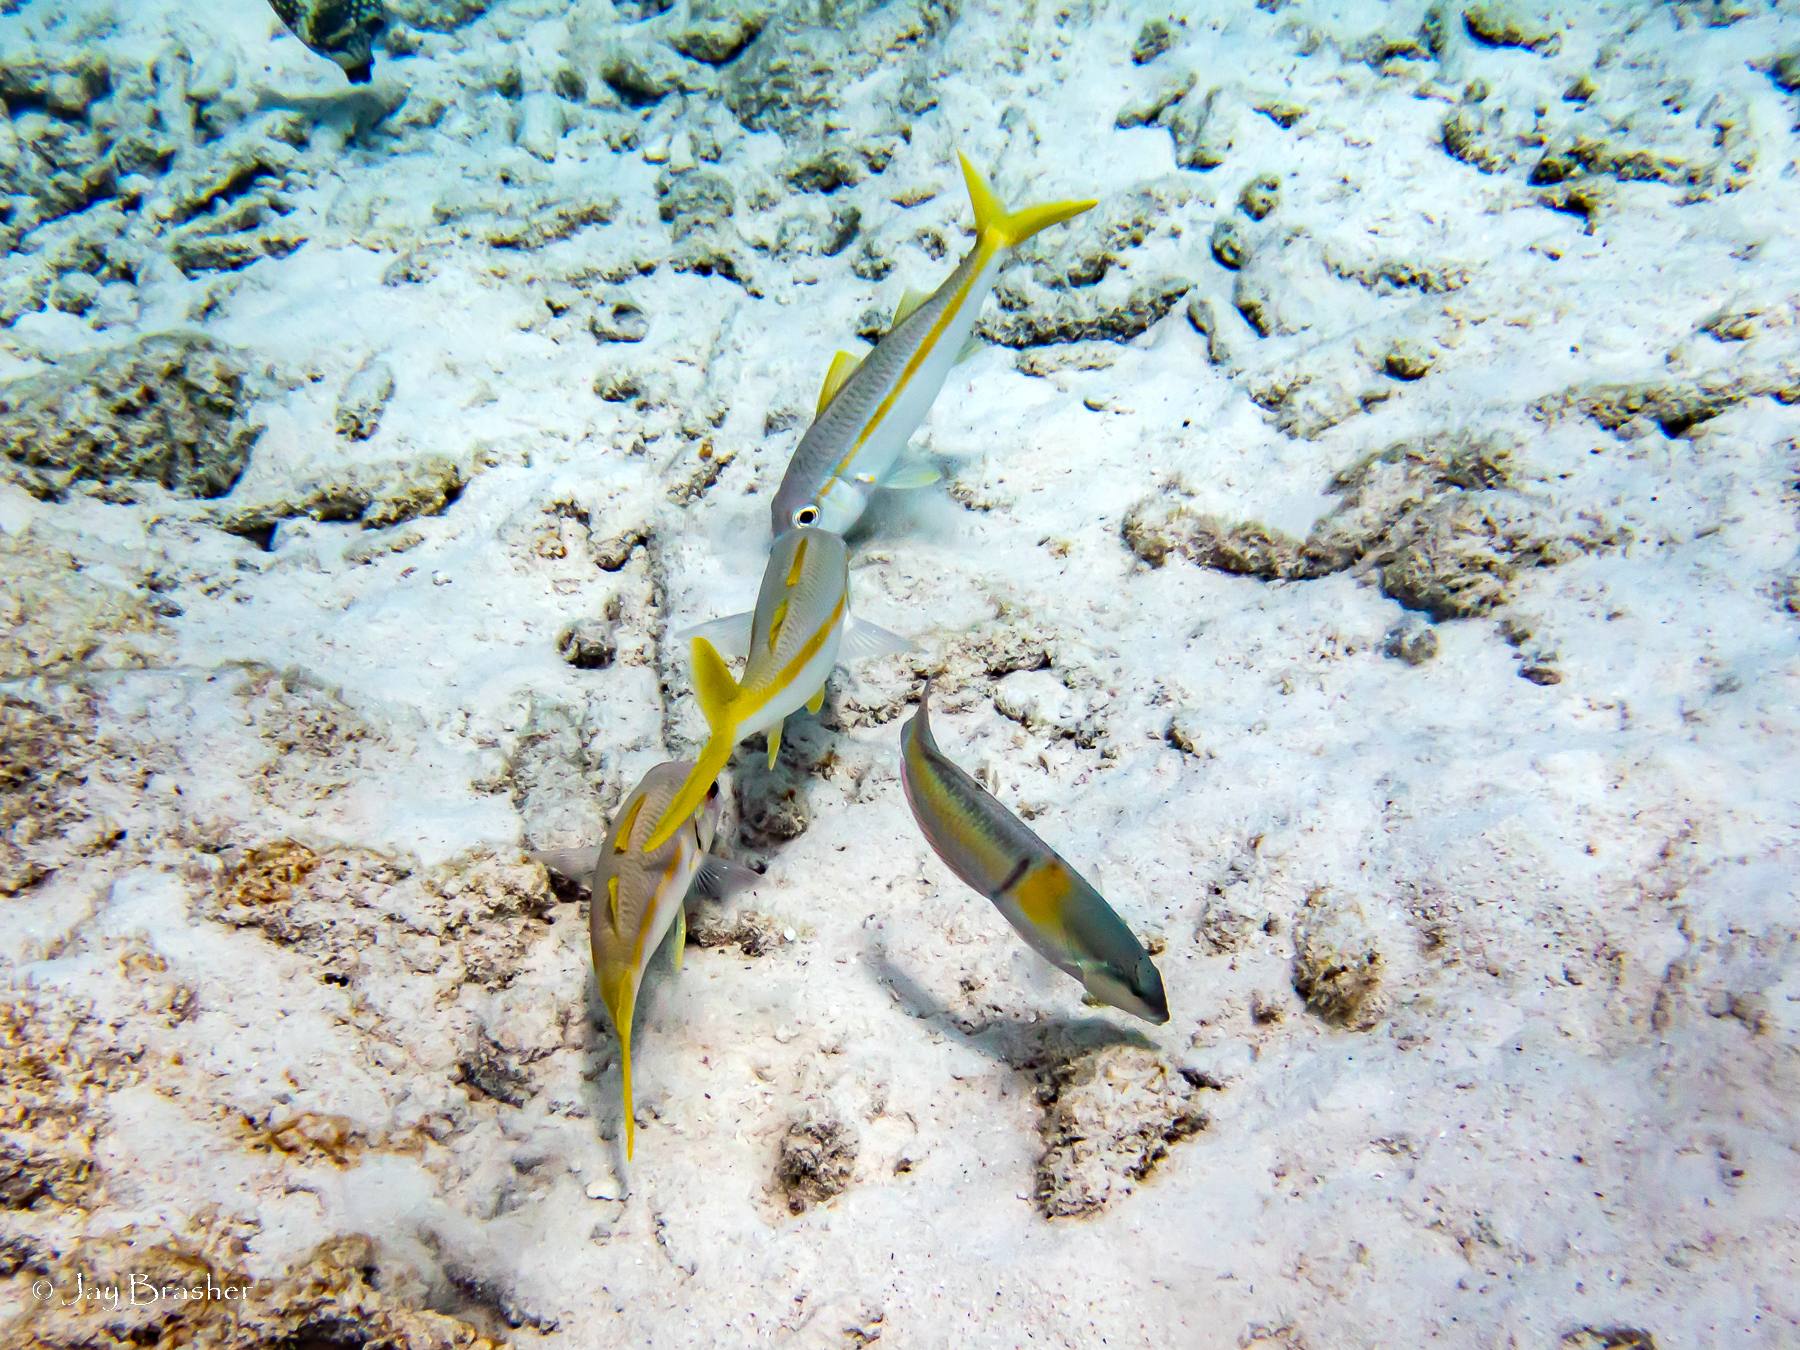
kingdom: Animalia
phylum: Chordata
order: Perciformes
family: Labridae
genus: Halichoeres
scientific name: Halichoeres garnoti
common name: Yellowhead wrasse
